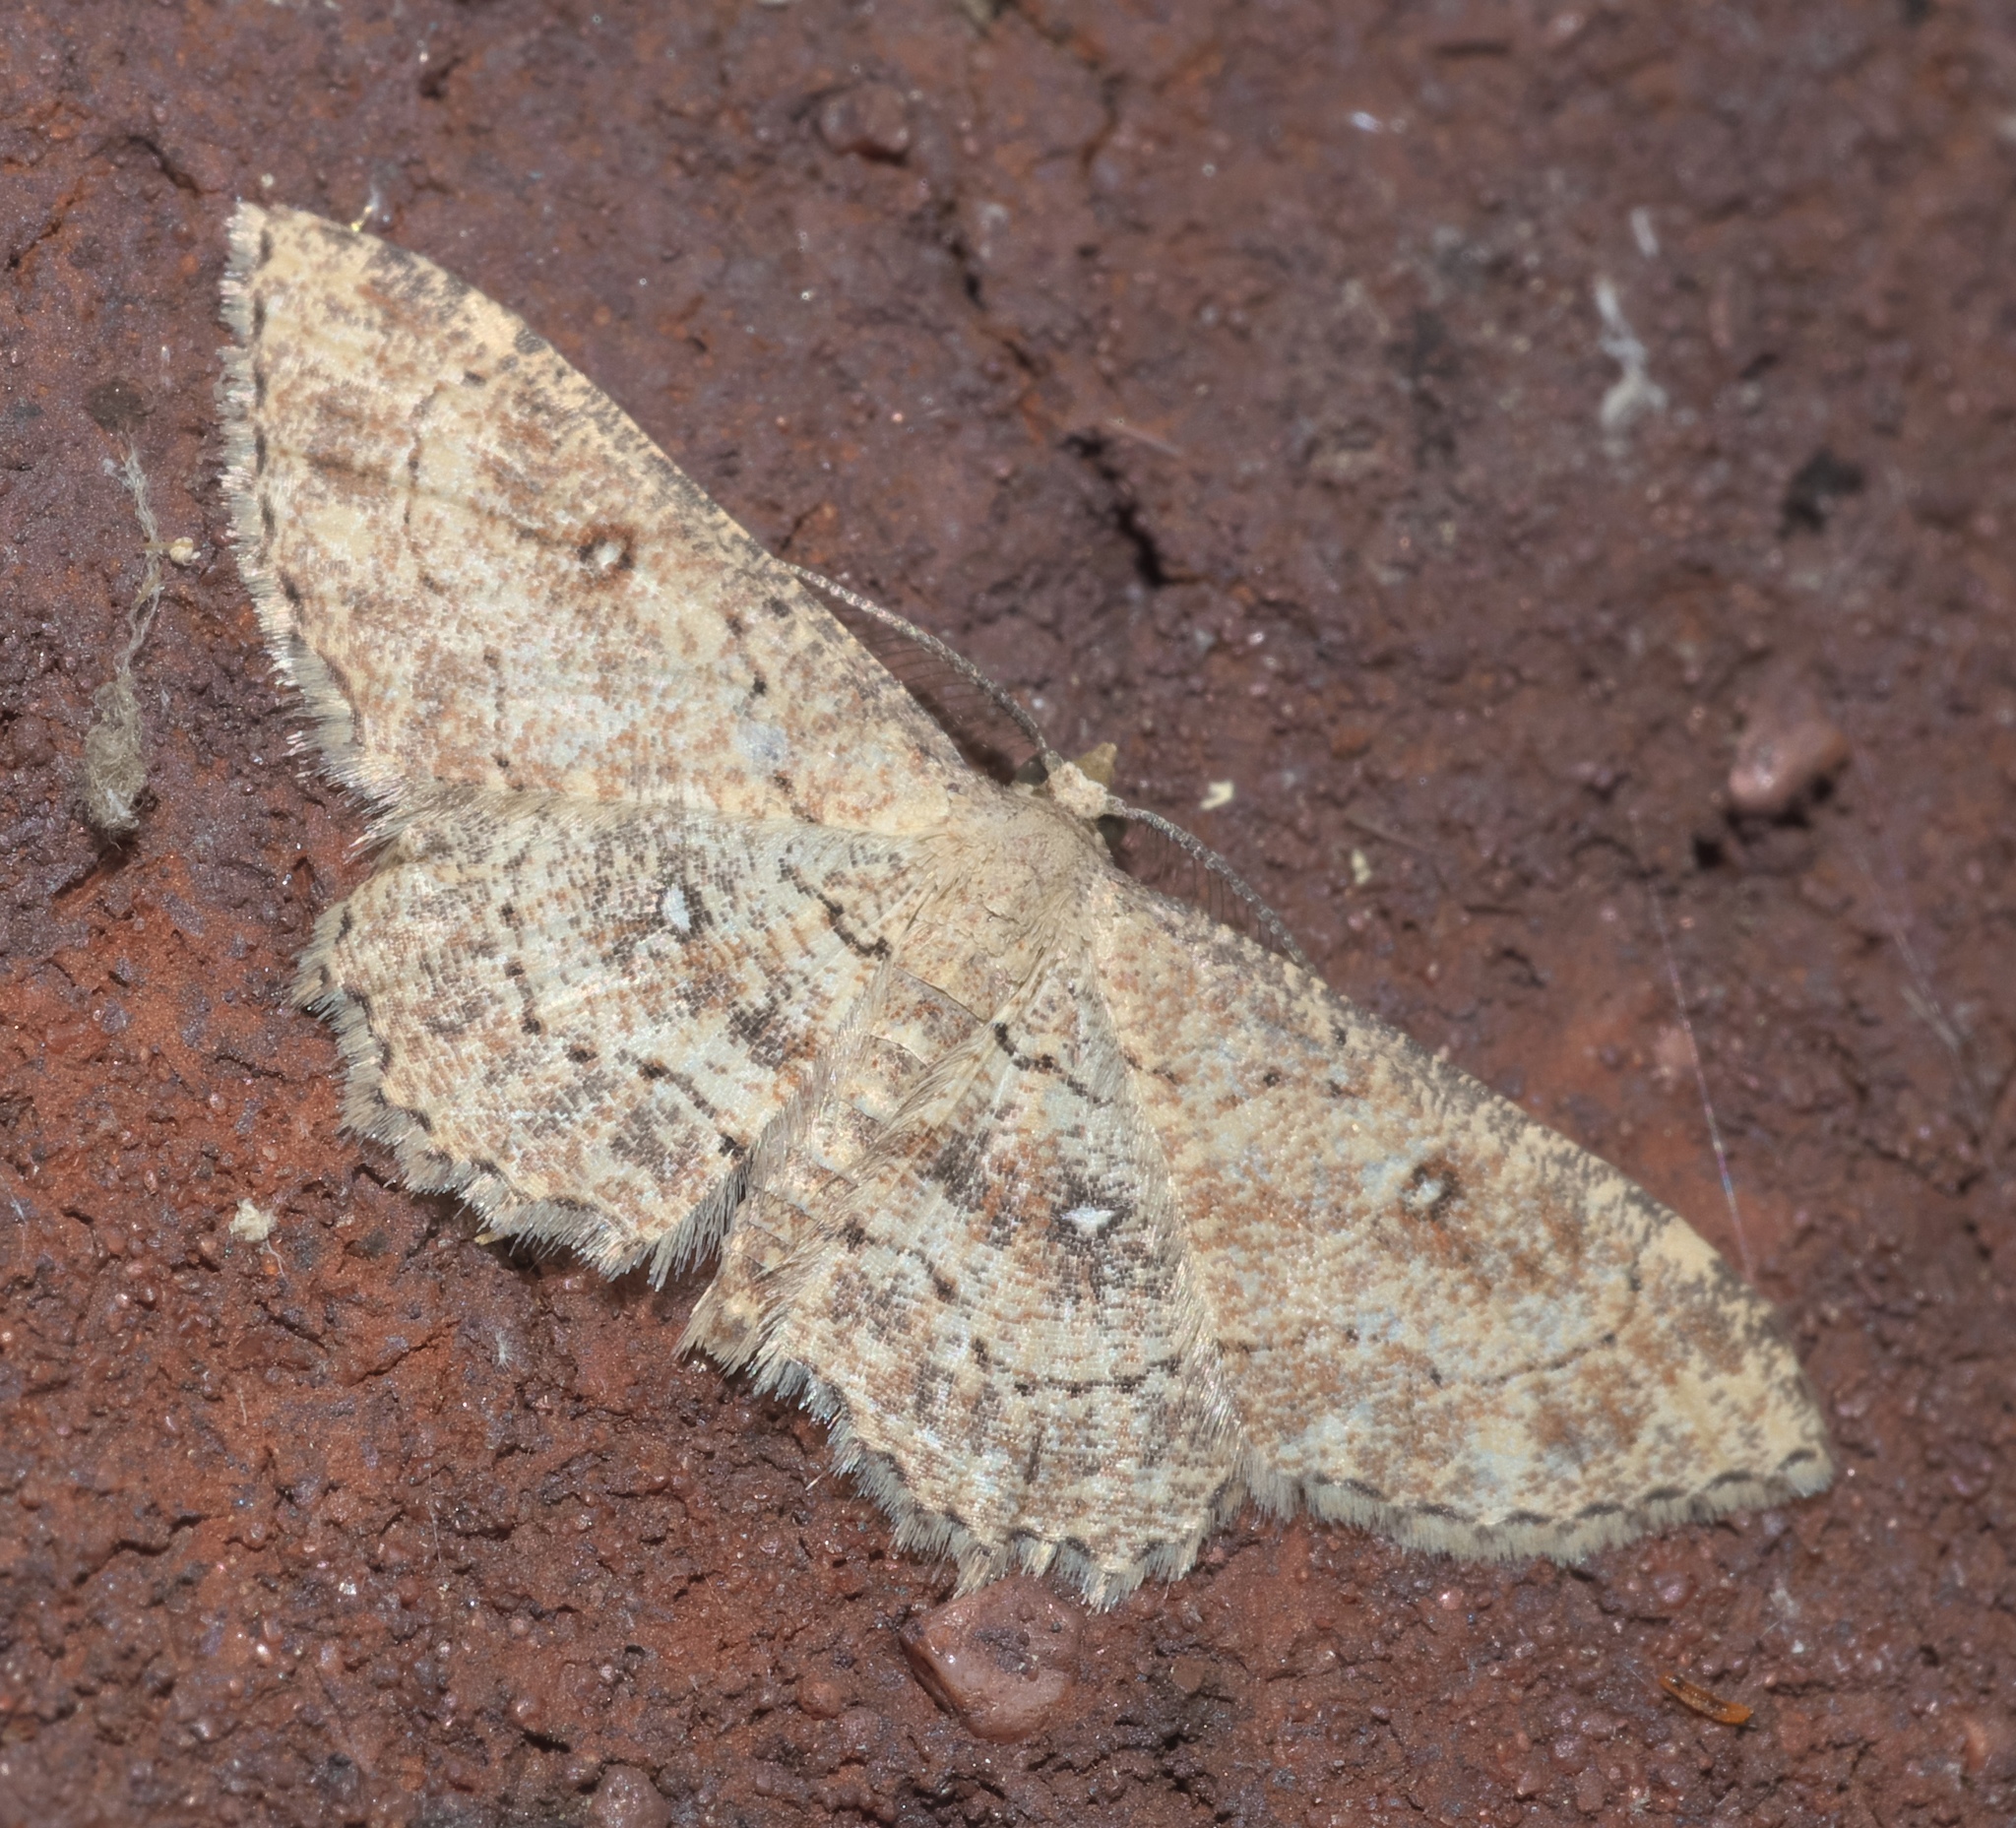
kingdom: Animalia
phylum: Arthropoda
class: Insecta
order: Lepidoptera
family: Geometridae
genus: Cyclophora
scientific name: Cyclophora nanaria
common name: Cankerworm
